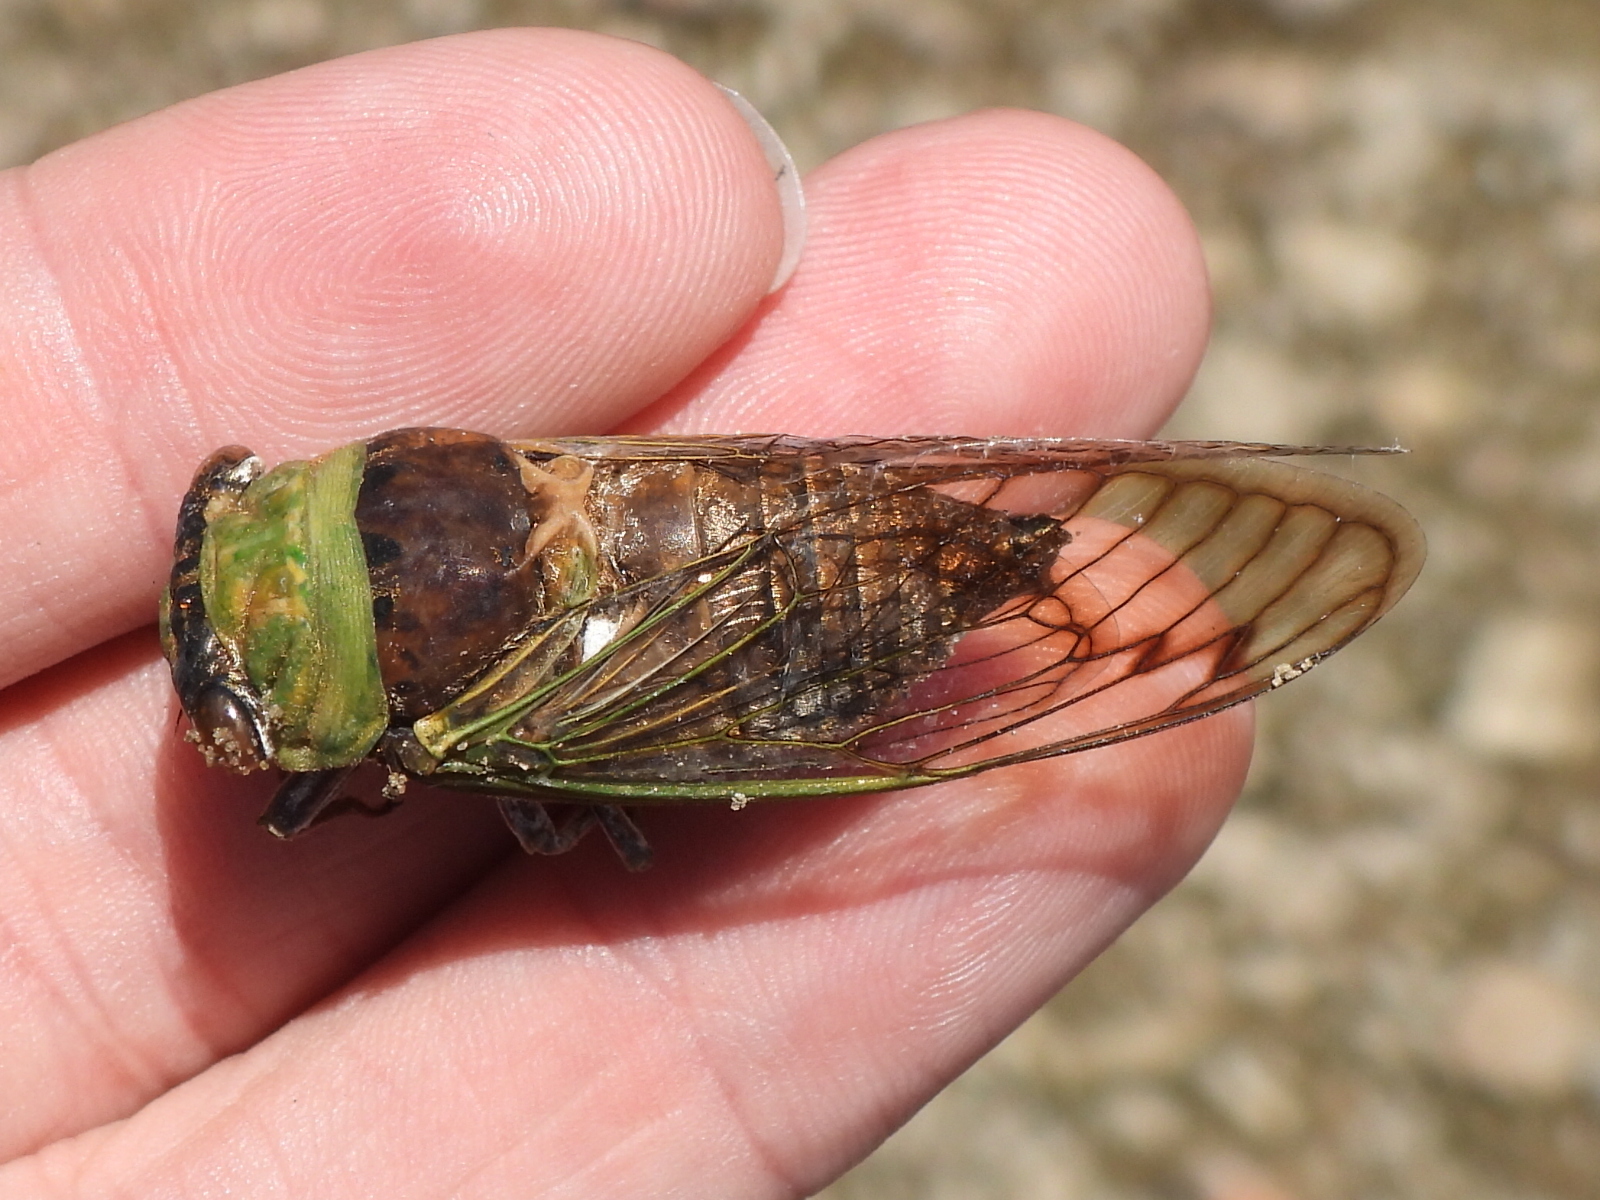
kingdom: Animalia
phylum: Arthropoda
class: Insecta
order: Hemiptera
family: Cicadidae
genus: Neotibicen
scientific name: Neotibicen superbus
